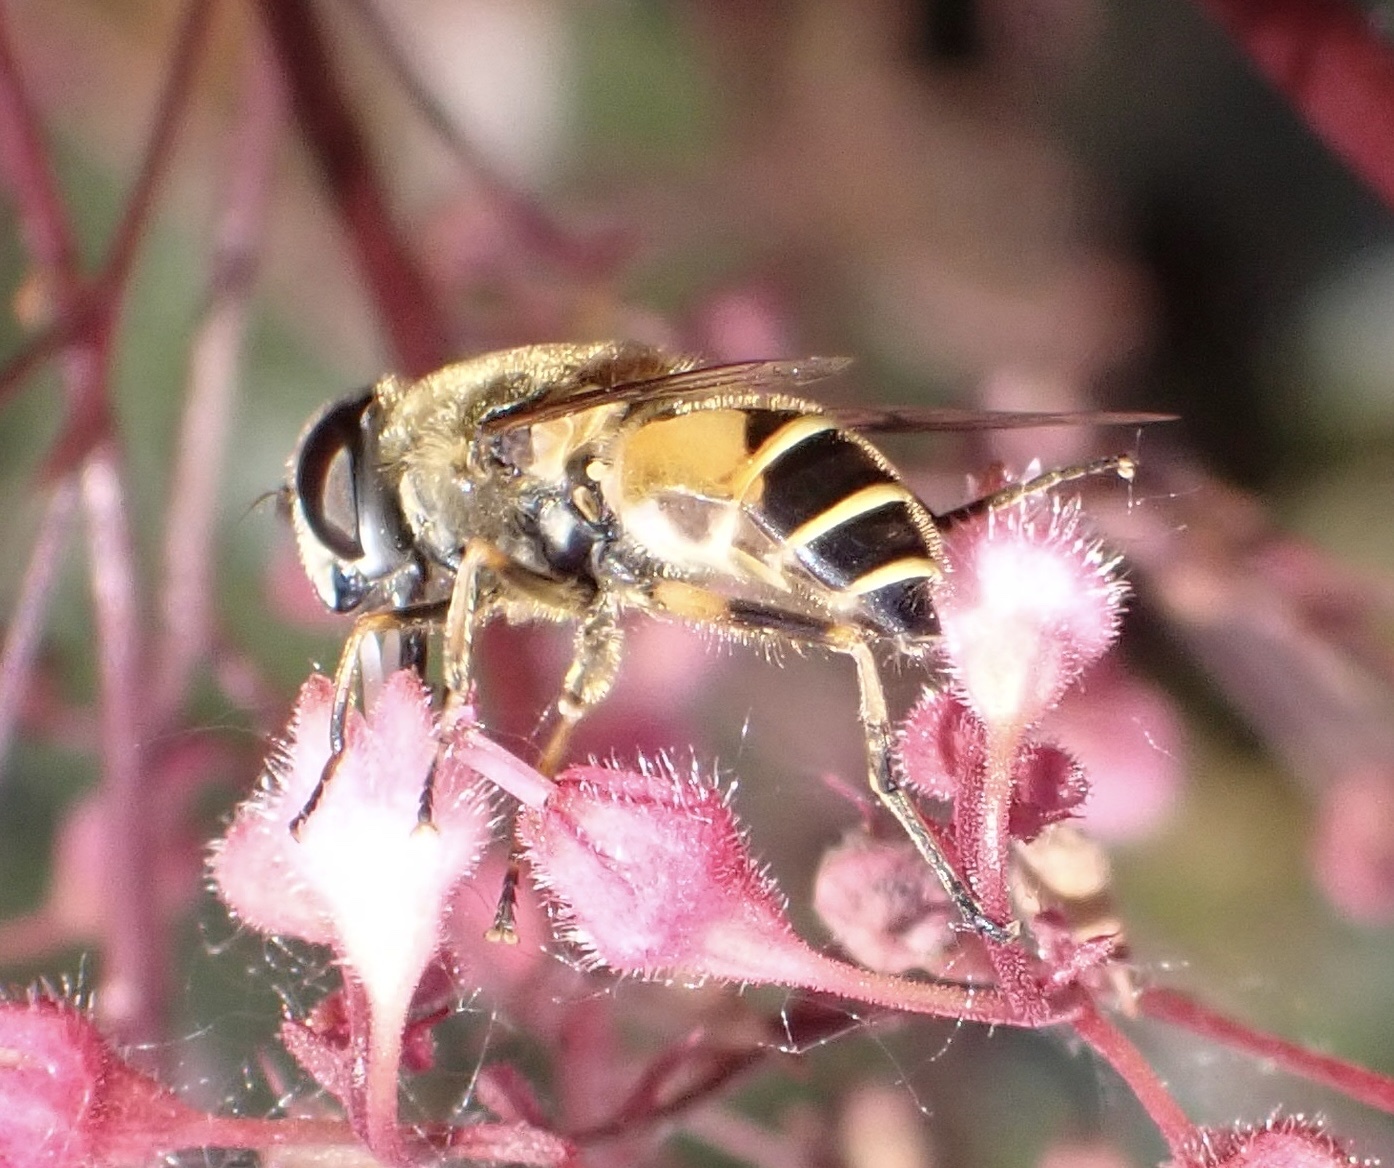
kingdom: Animalia
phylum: Arthropoda
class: Insecta
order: Diptera
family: Syrphidae
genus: Cheilosia
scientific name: Cheilosia morio
